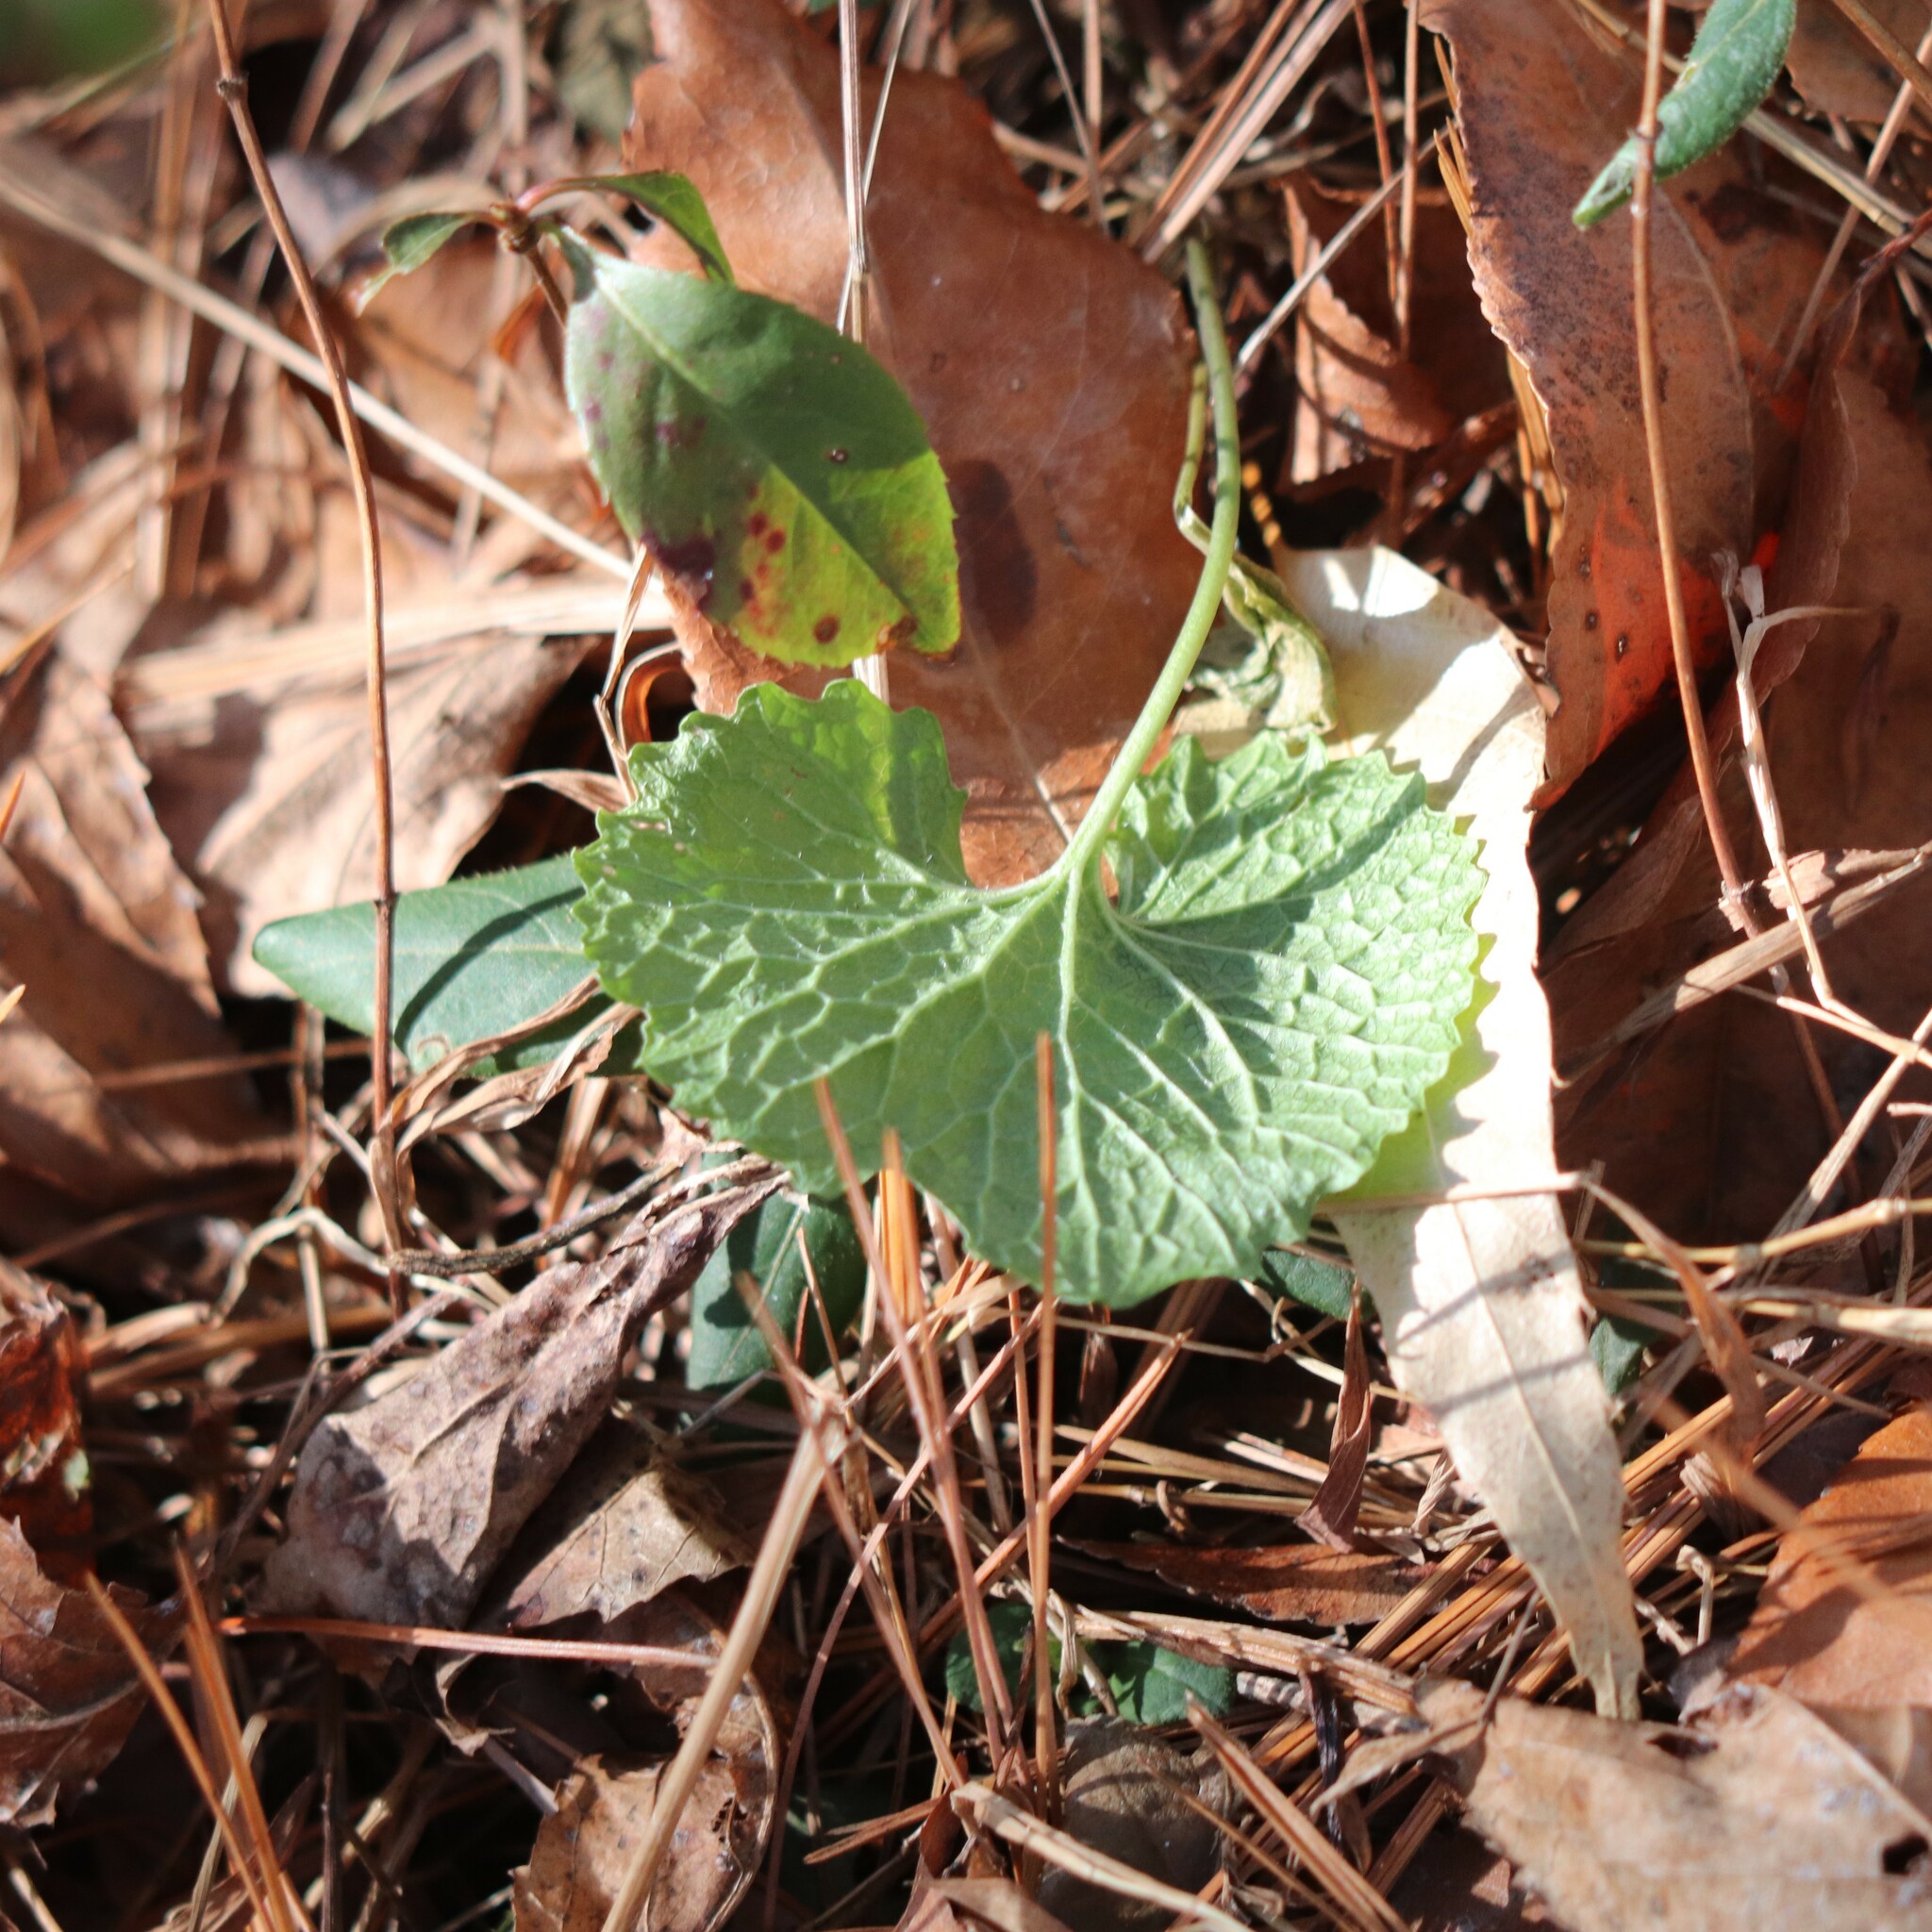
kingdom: Plantae
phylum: Tracheophyta
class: Magnoliopsida
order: Brassicales
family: Brassicaceae
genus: Alliaria
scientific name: Alliaria petiolata
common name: Garlic mustard
